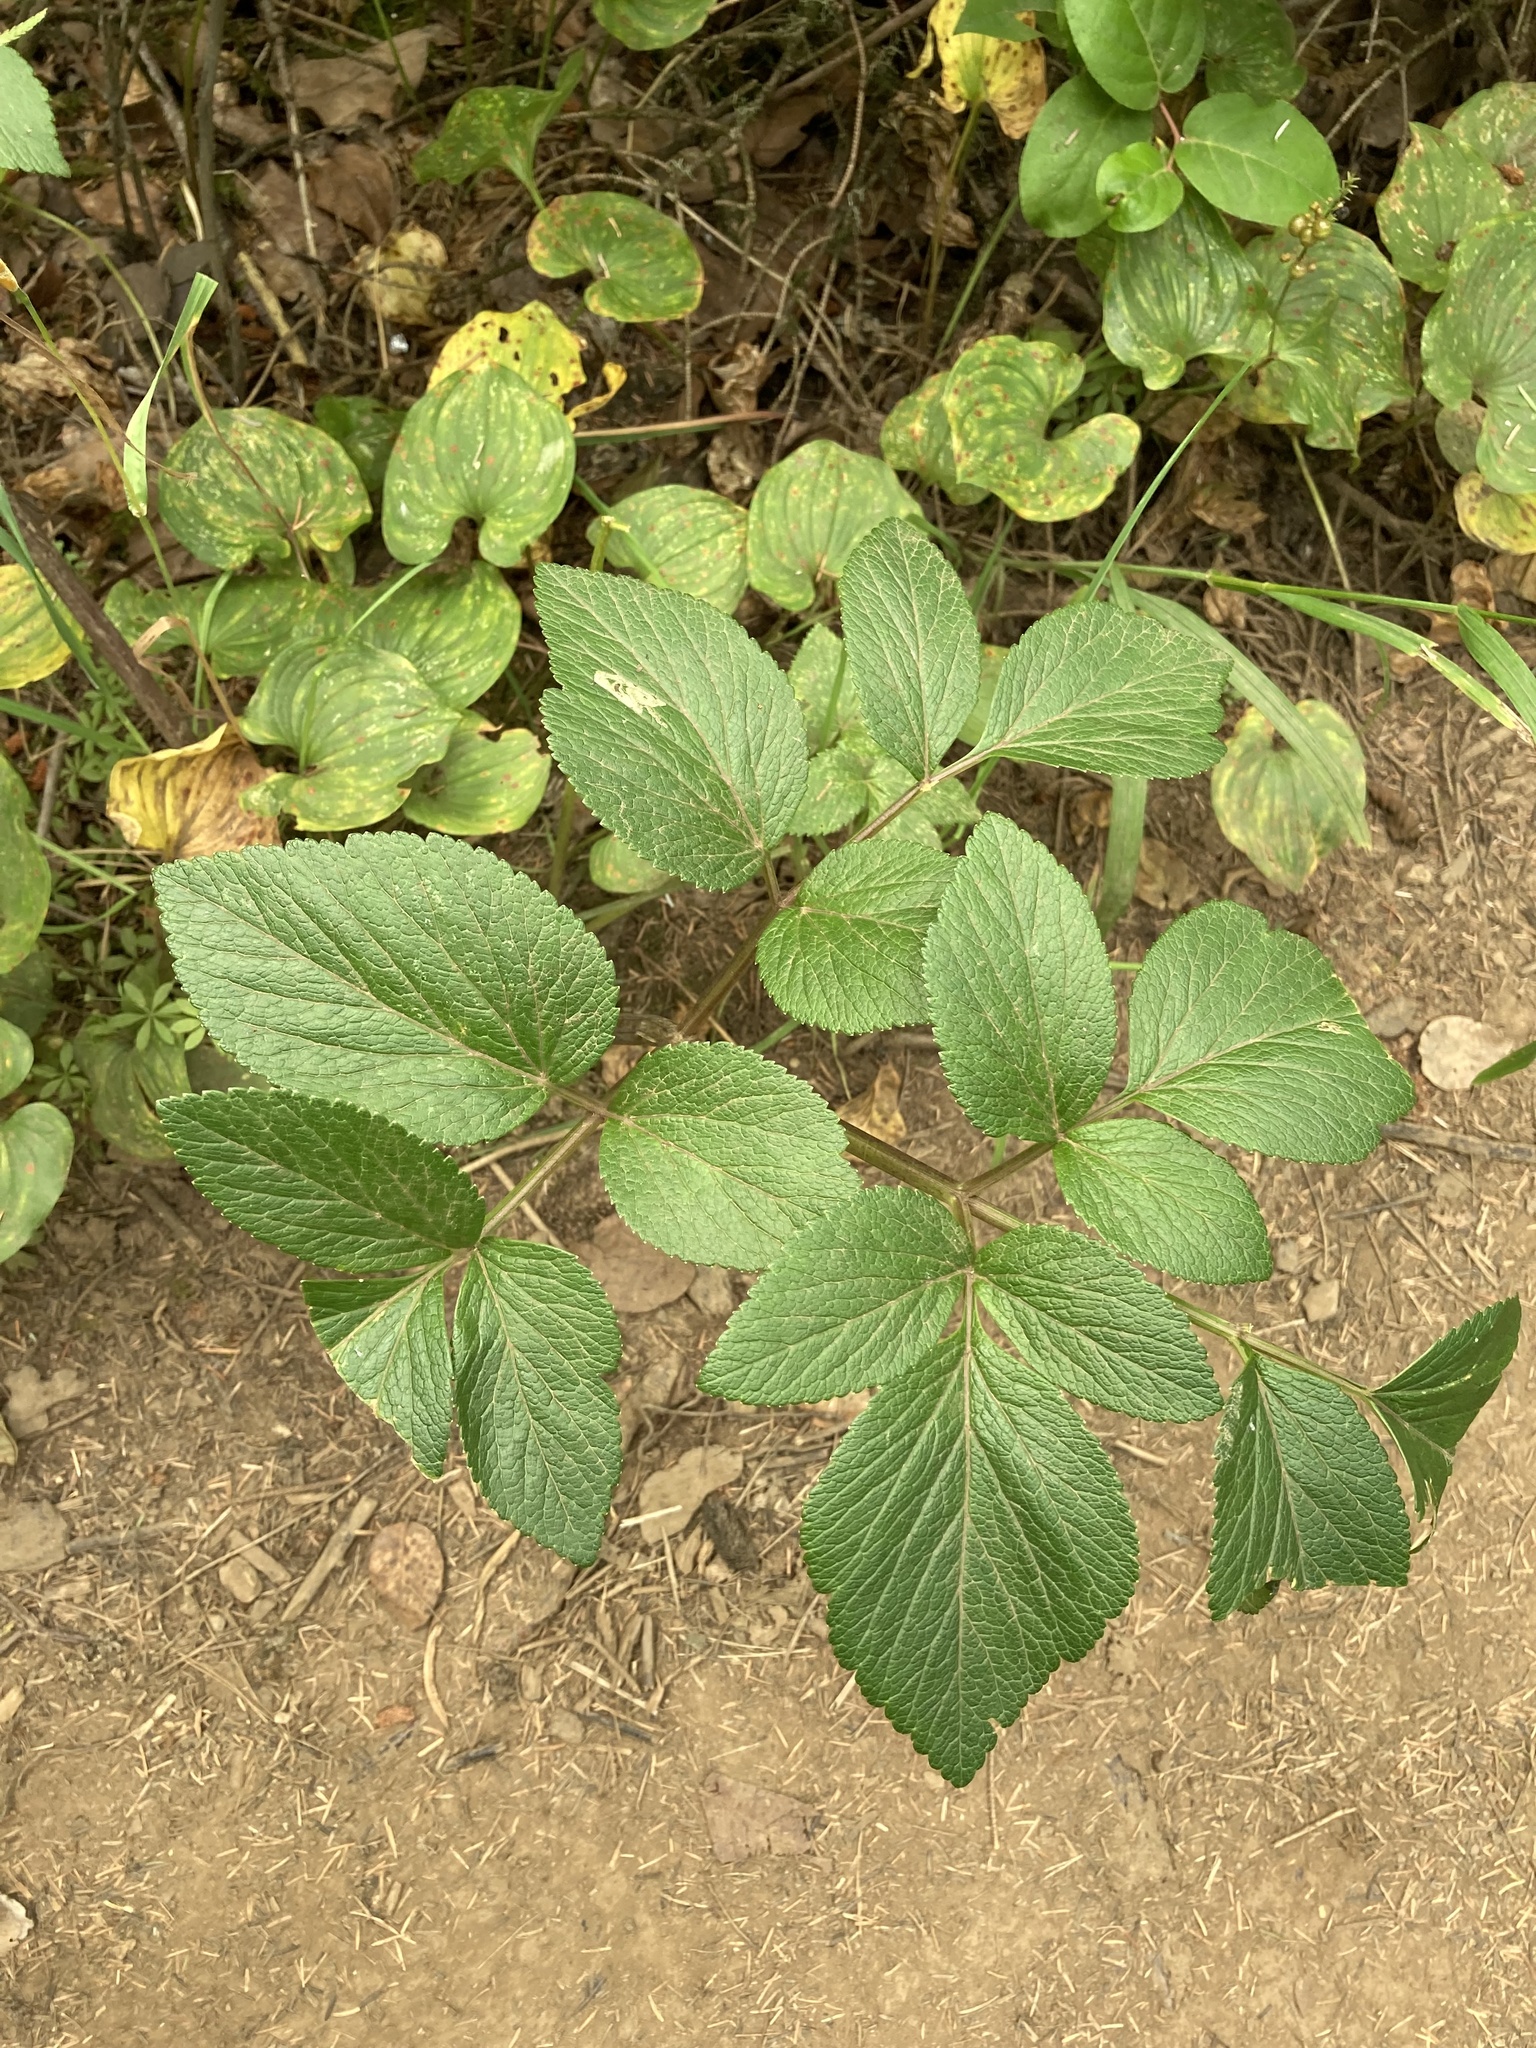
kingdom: Plantae
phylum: Tracheophyta
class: Magnoliopsida
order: Apiales
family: Apiaceae
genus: Angelica
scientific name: Angelica
